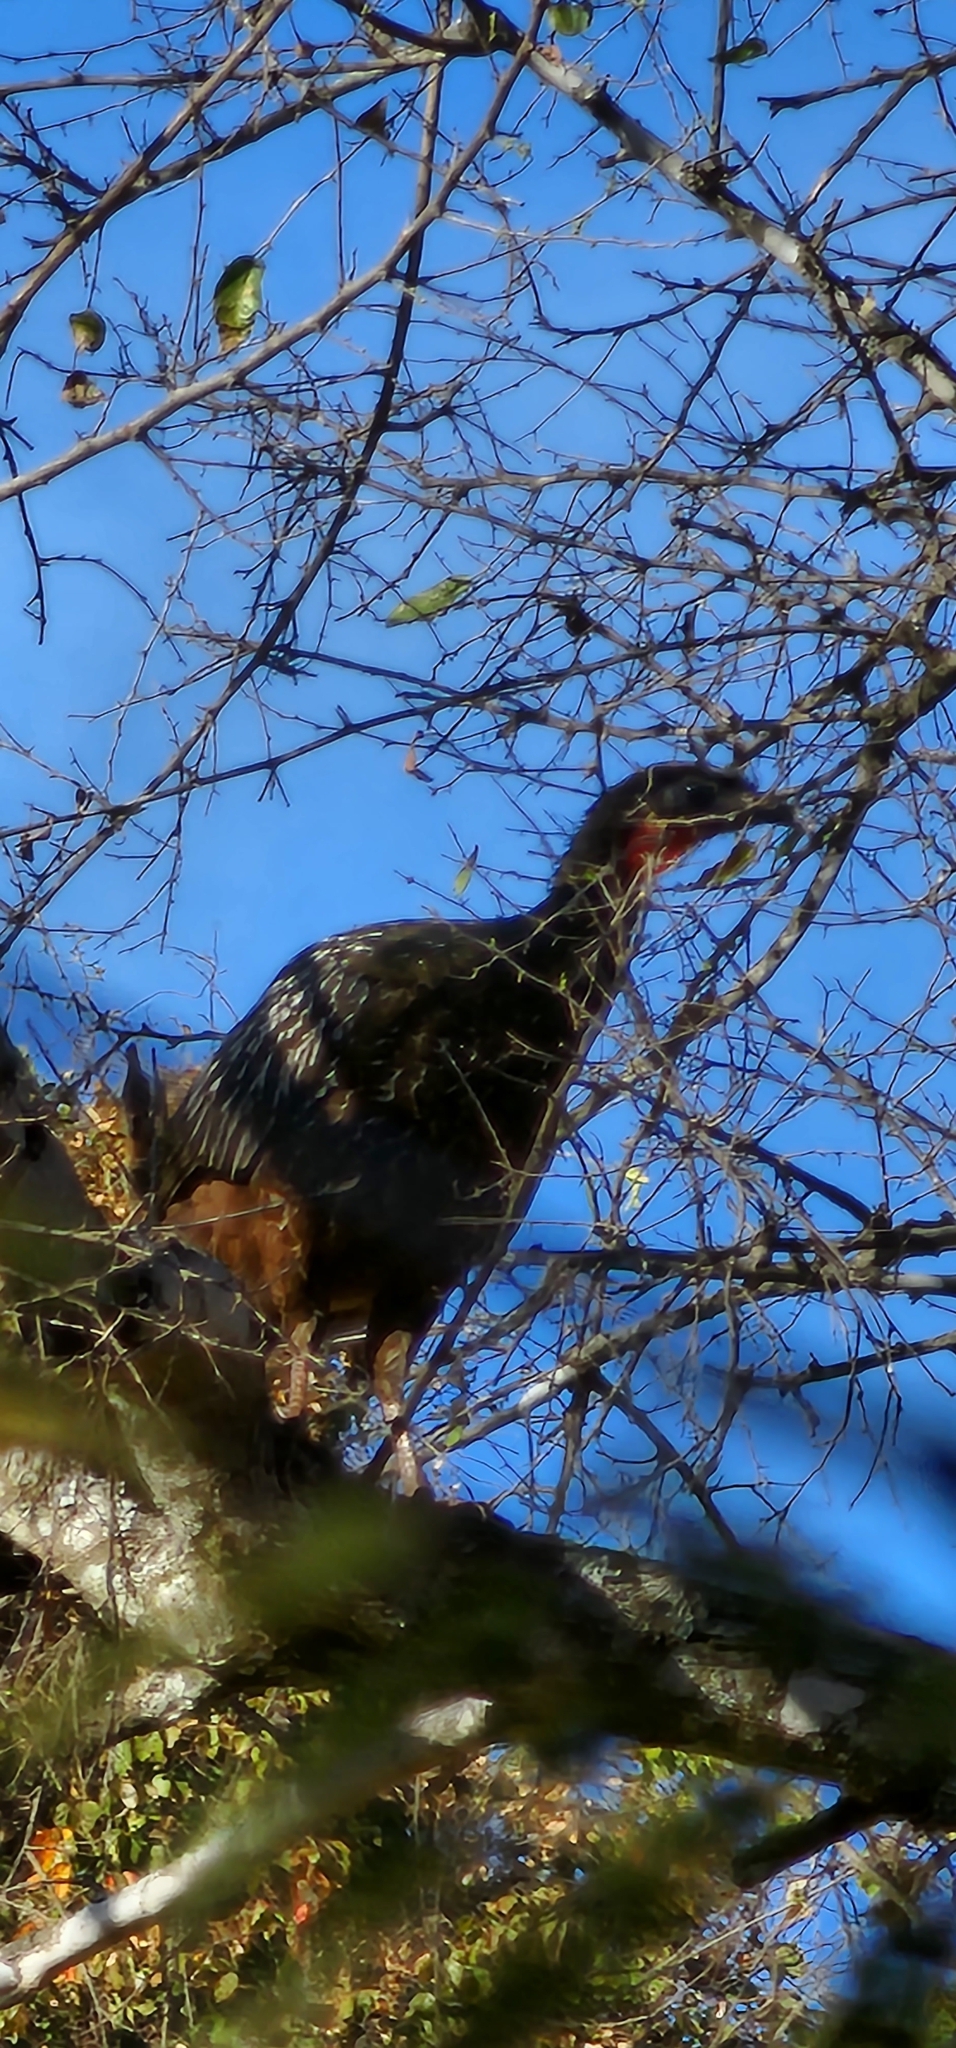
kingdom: Animalia
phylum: Chordata
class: Aves
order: Galliformes
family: Cracidae
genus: Penelope
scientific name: Penelope bridgesi
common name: Yungas guan
